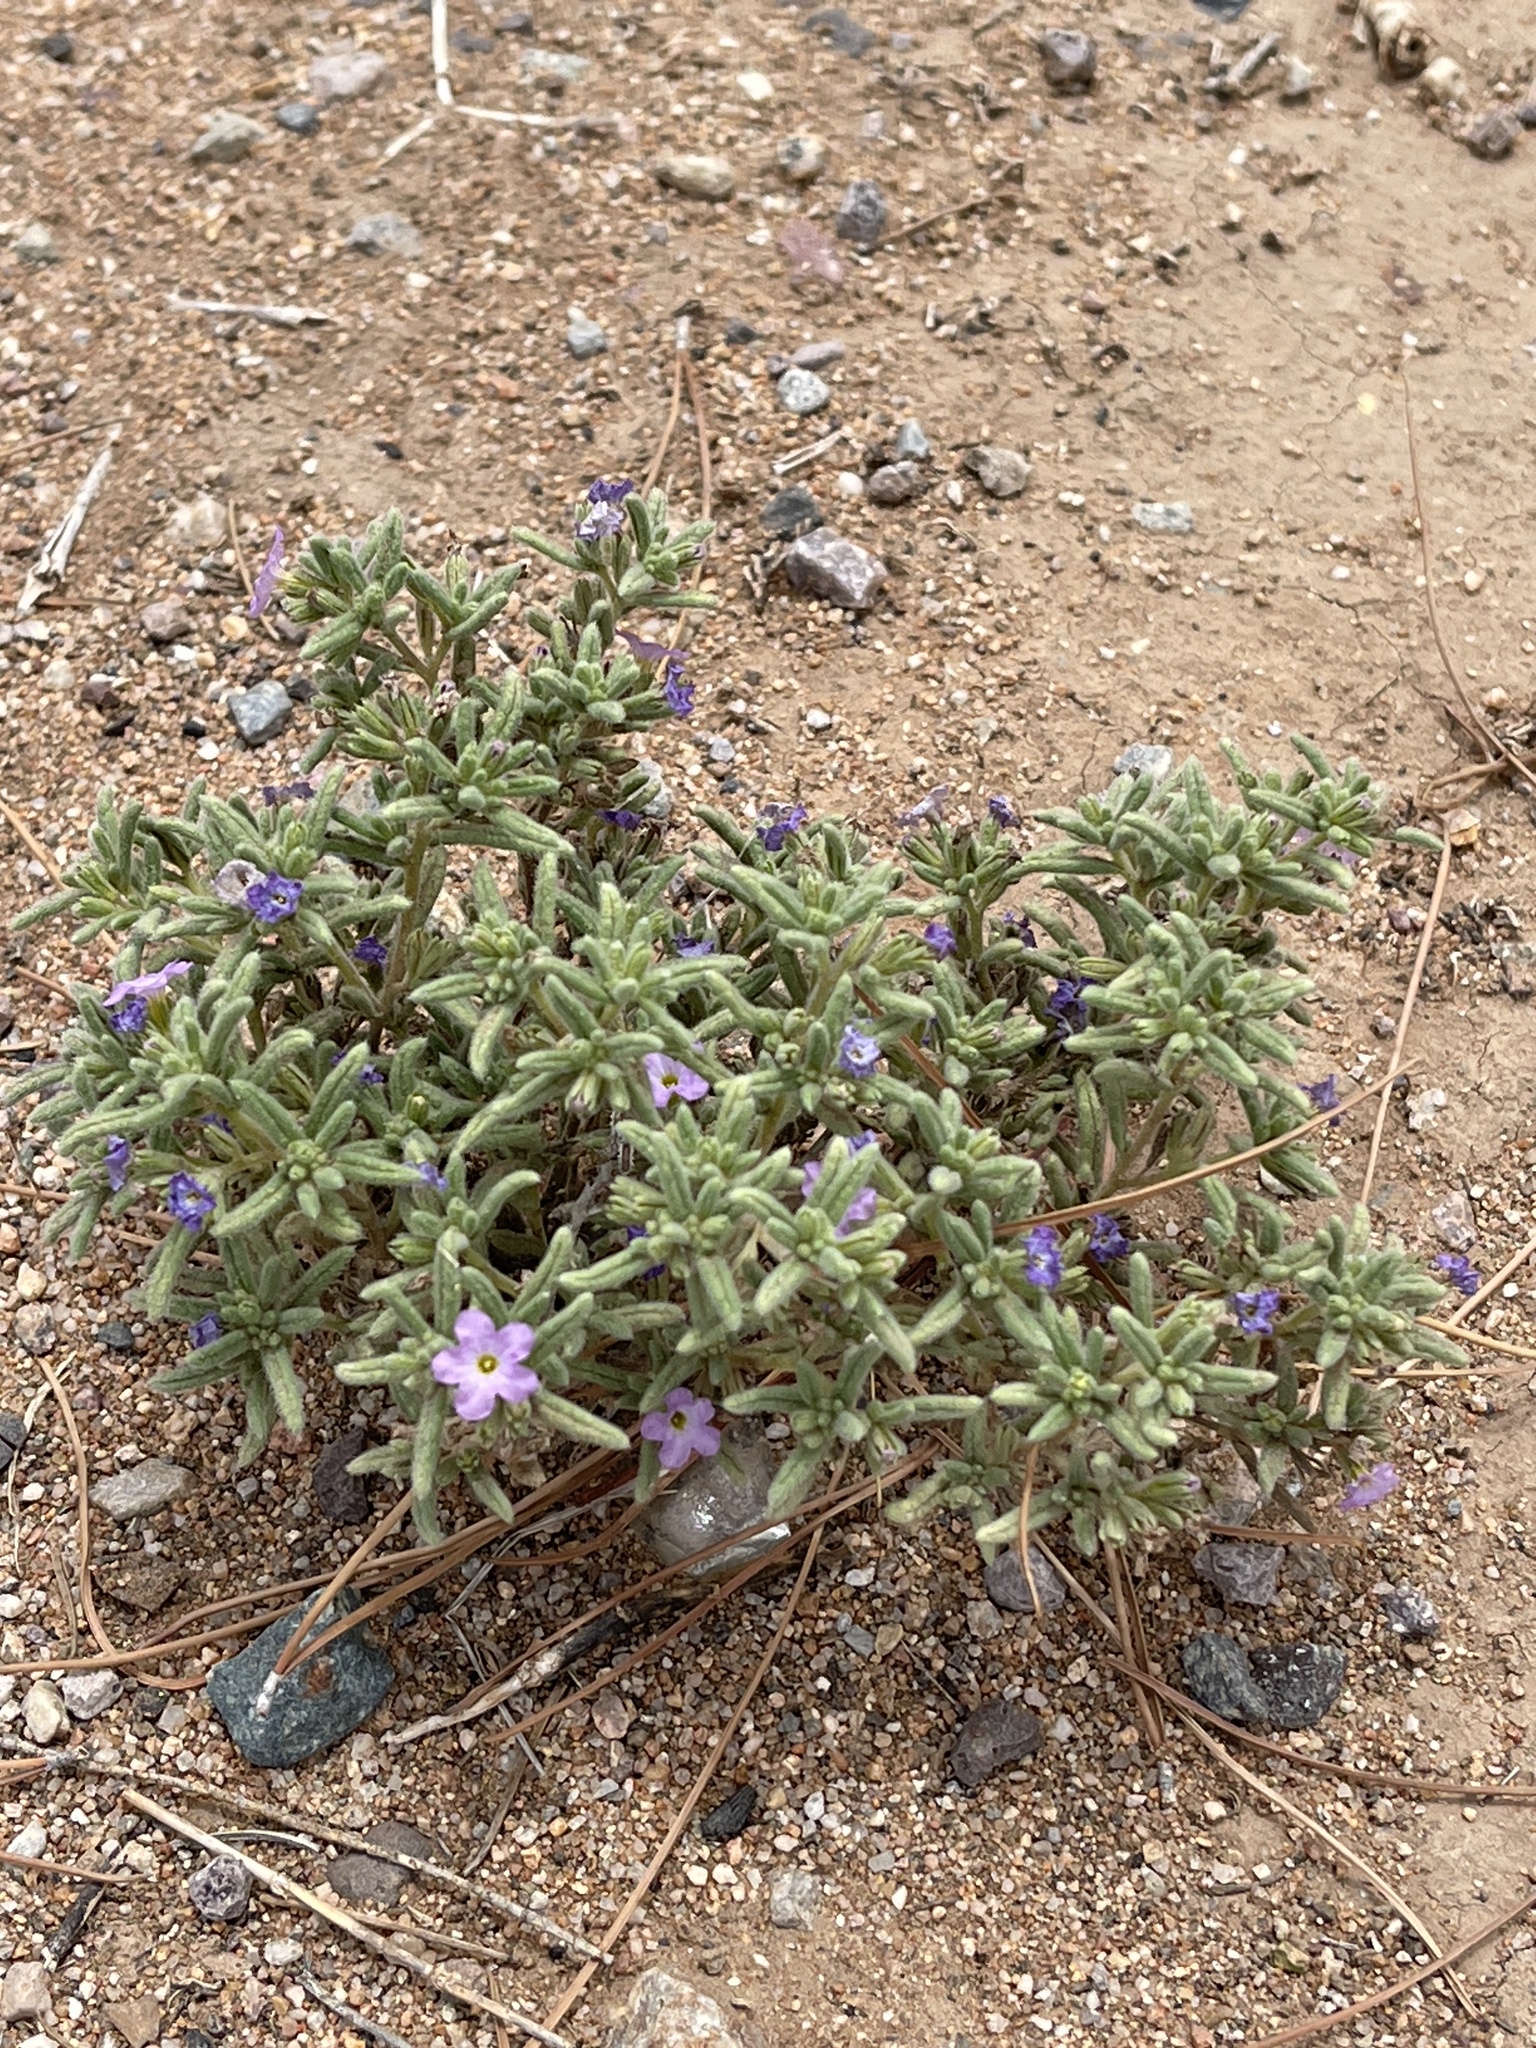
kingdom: Plantae
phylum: Tracheophyta
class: Magnoliopsida
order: Boraginales
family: Namaceae
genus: Nama
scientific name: Nama hispida
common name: Bristly nama
